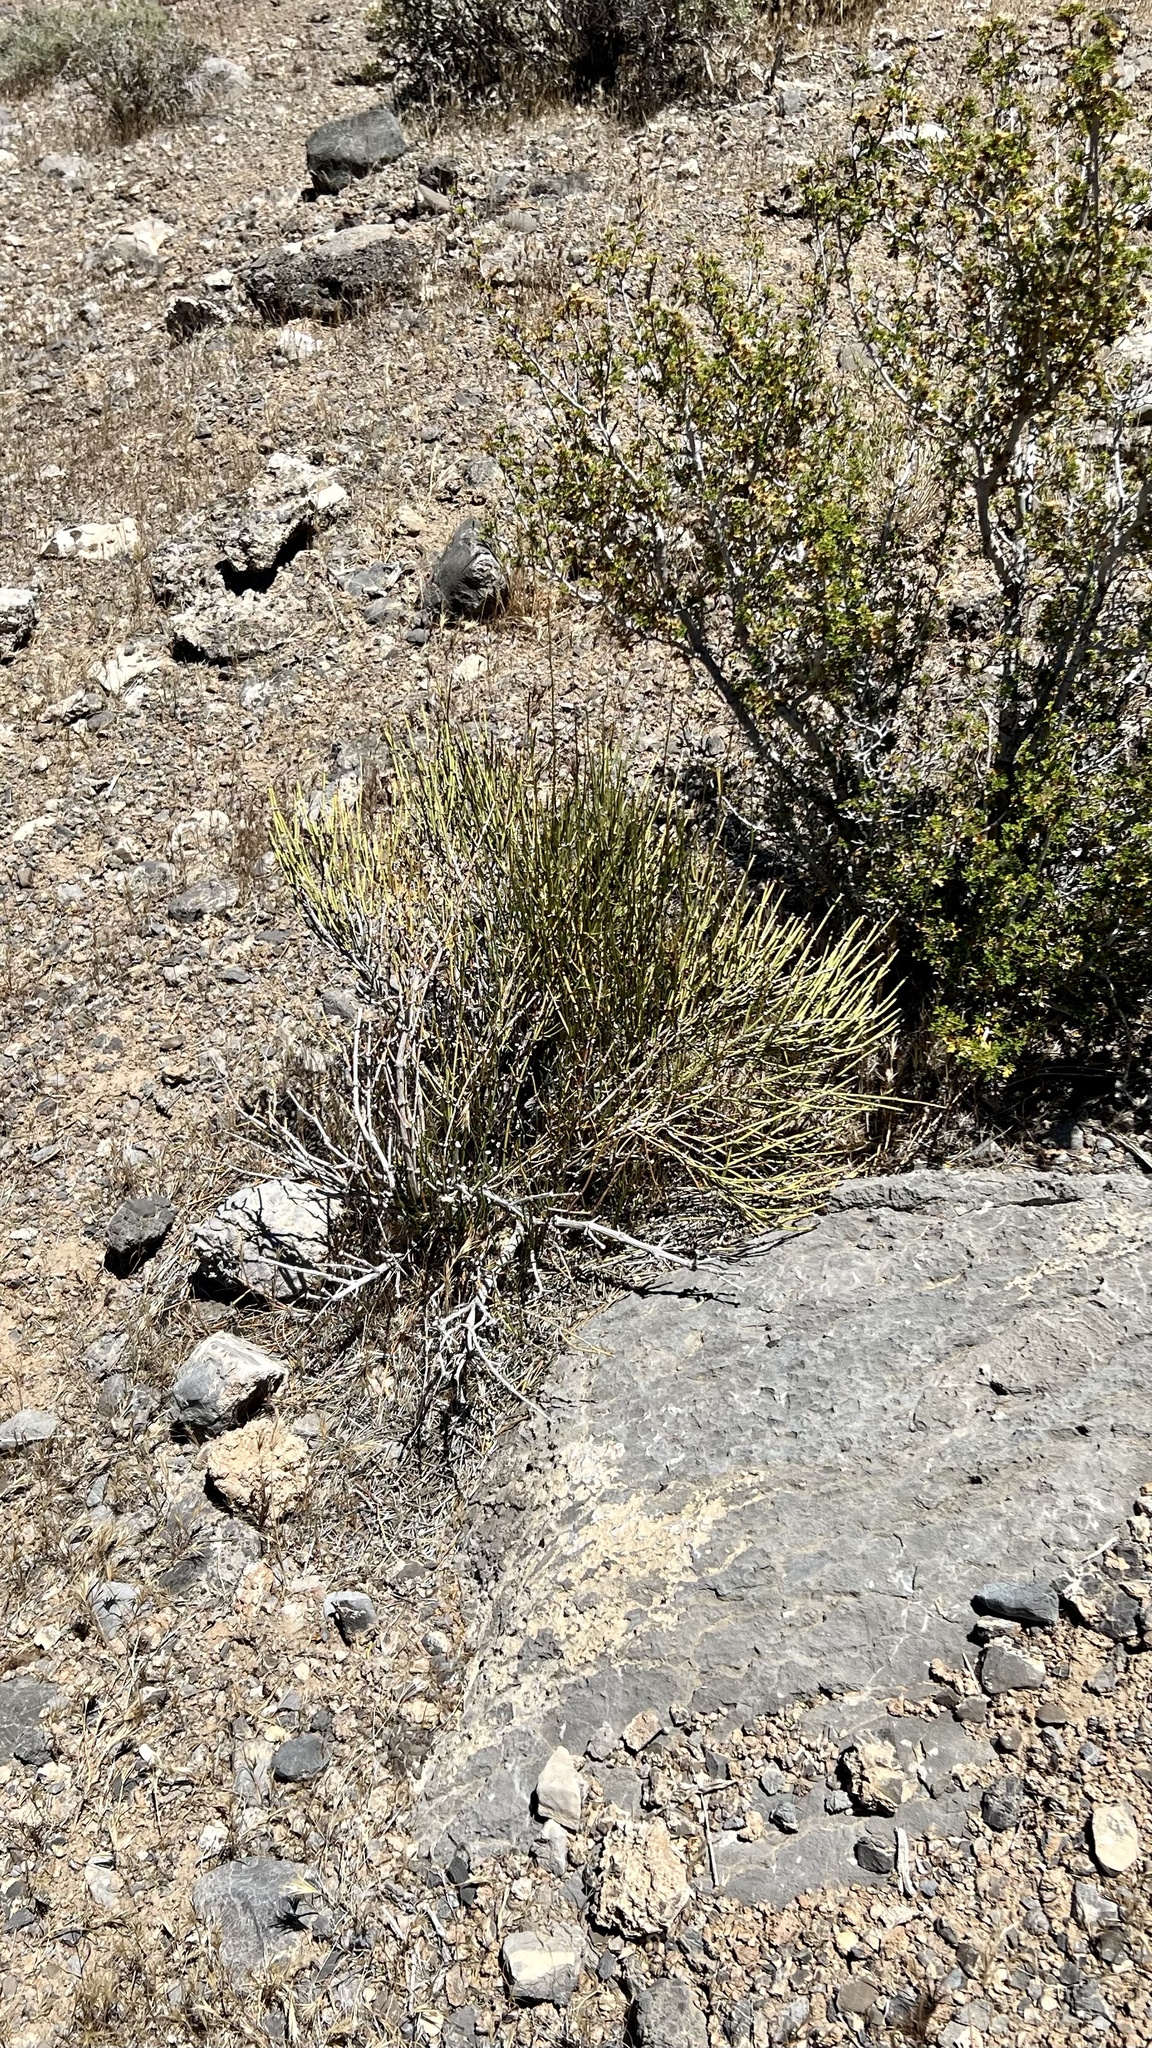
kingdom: Plantae
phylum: Tracheophyta
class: Gnetopsida
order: Ephedrales
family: Ephedraceae
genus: Ephedra
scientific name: Ephedra nevadensis
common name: Gray ephedra
